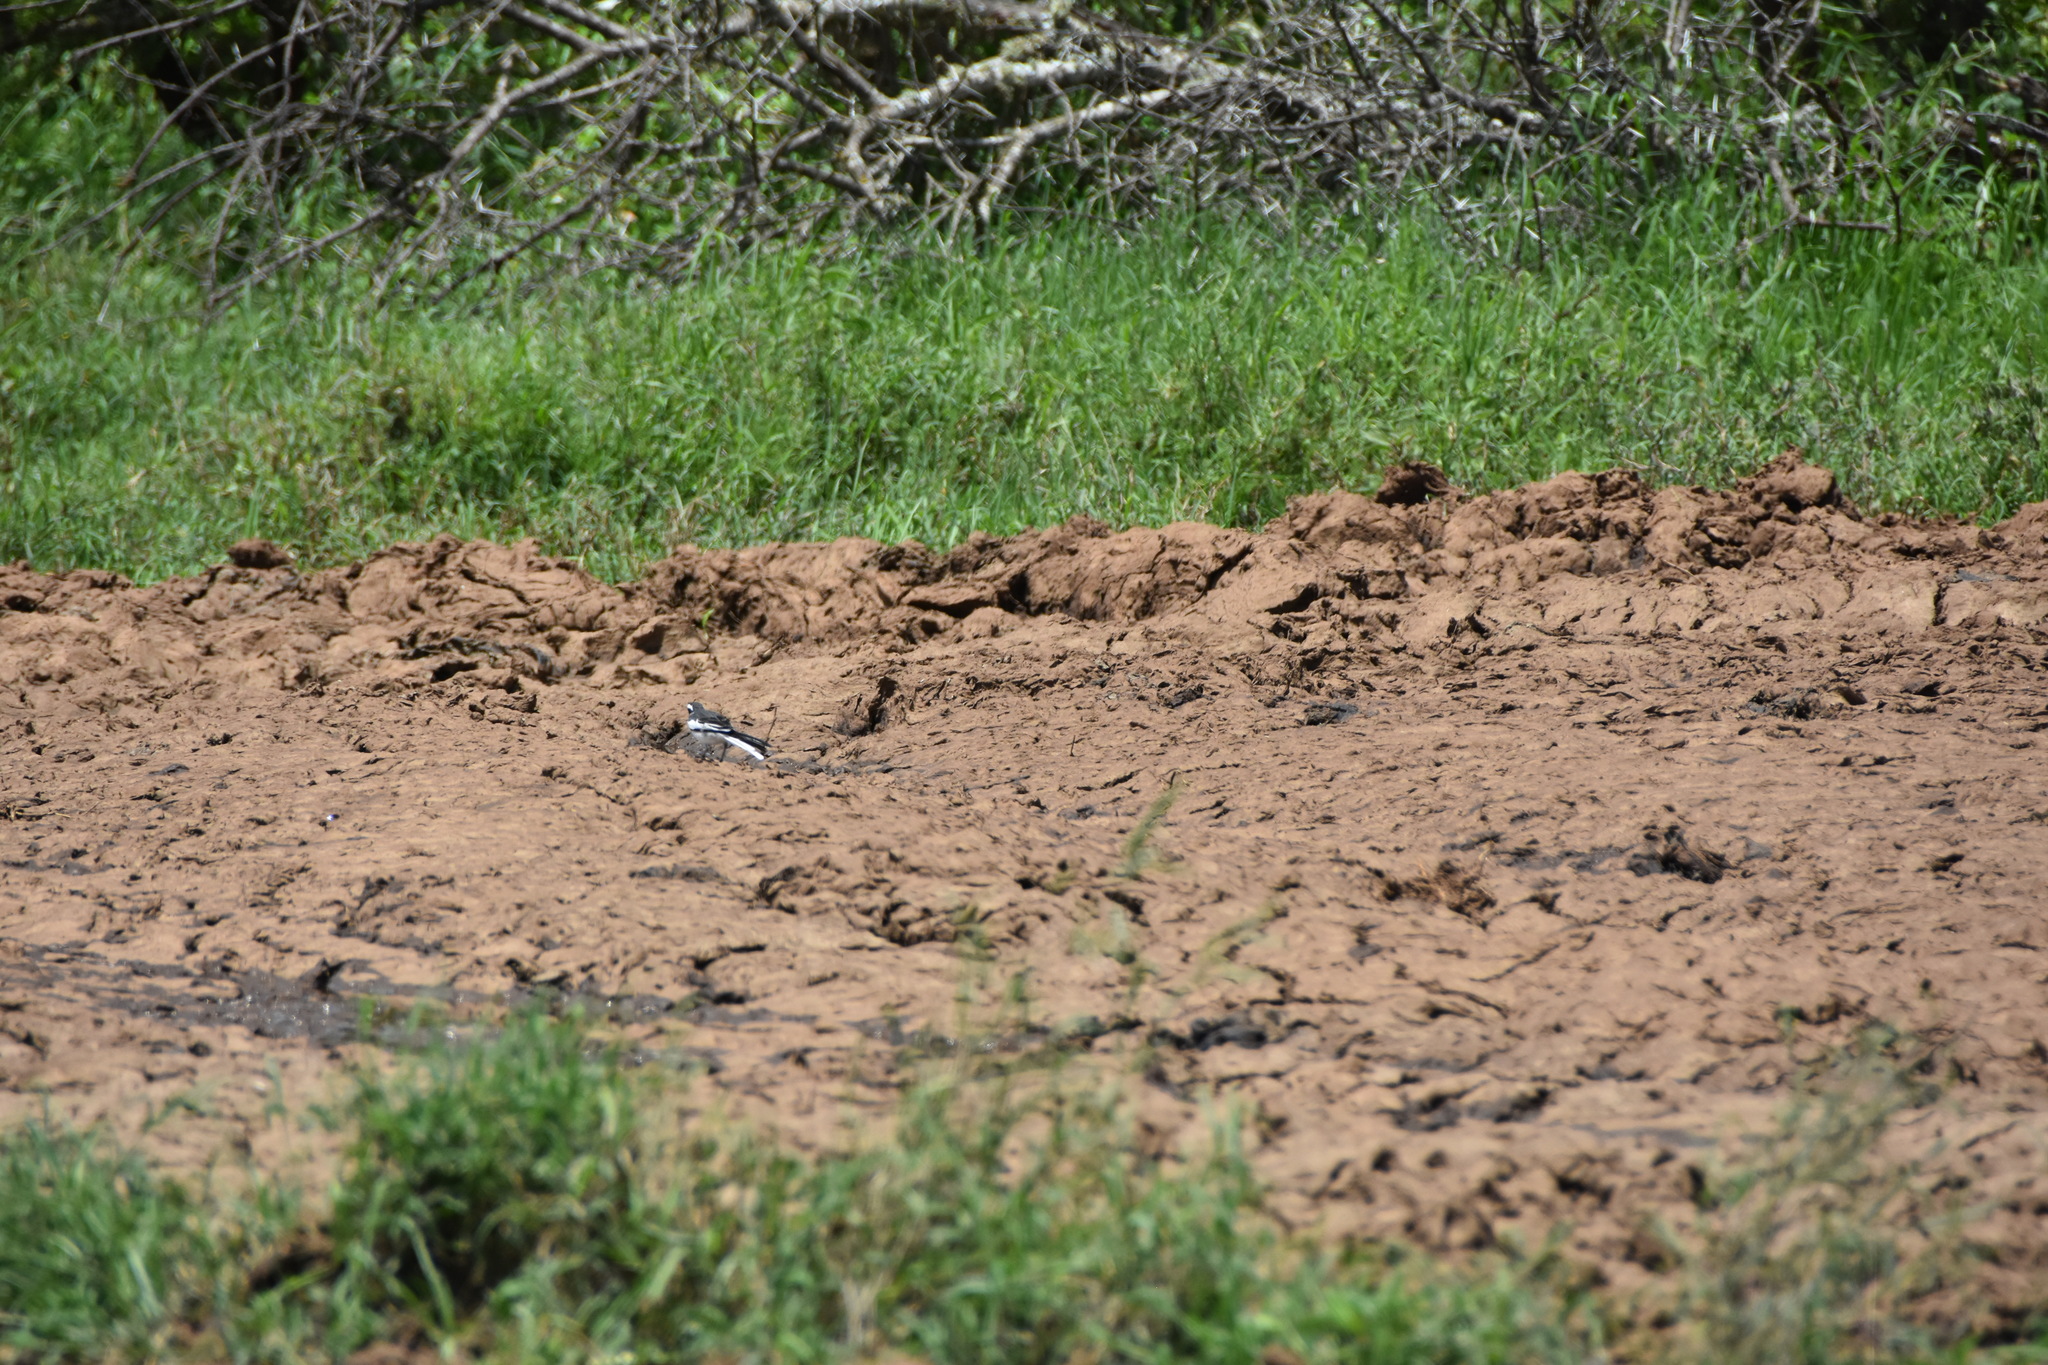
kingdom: Animalia
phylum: Chordata
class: Aves
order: Passeriformes
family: Motacillidae
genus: Motacilla
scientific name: Motacilla aguimp
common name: African pied wagtail
